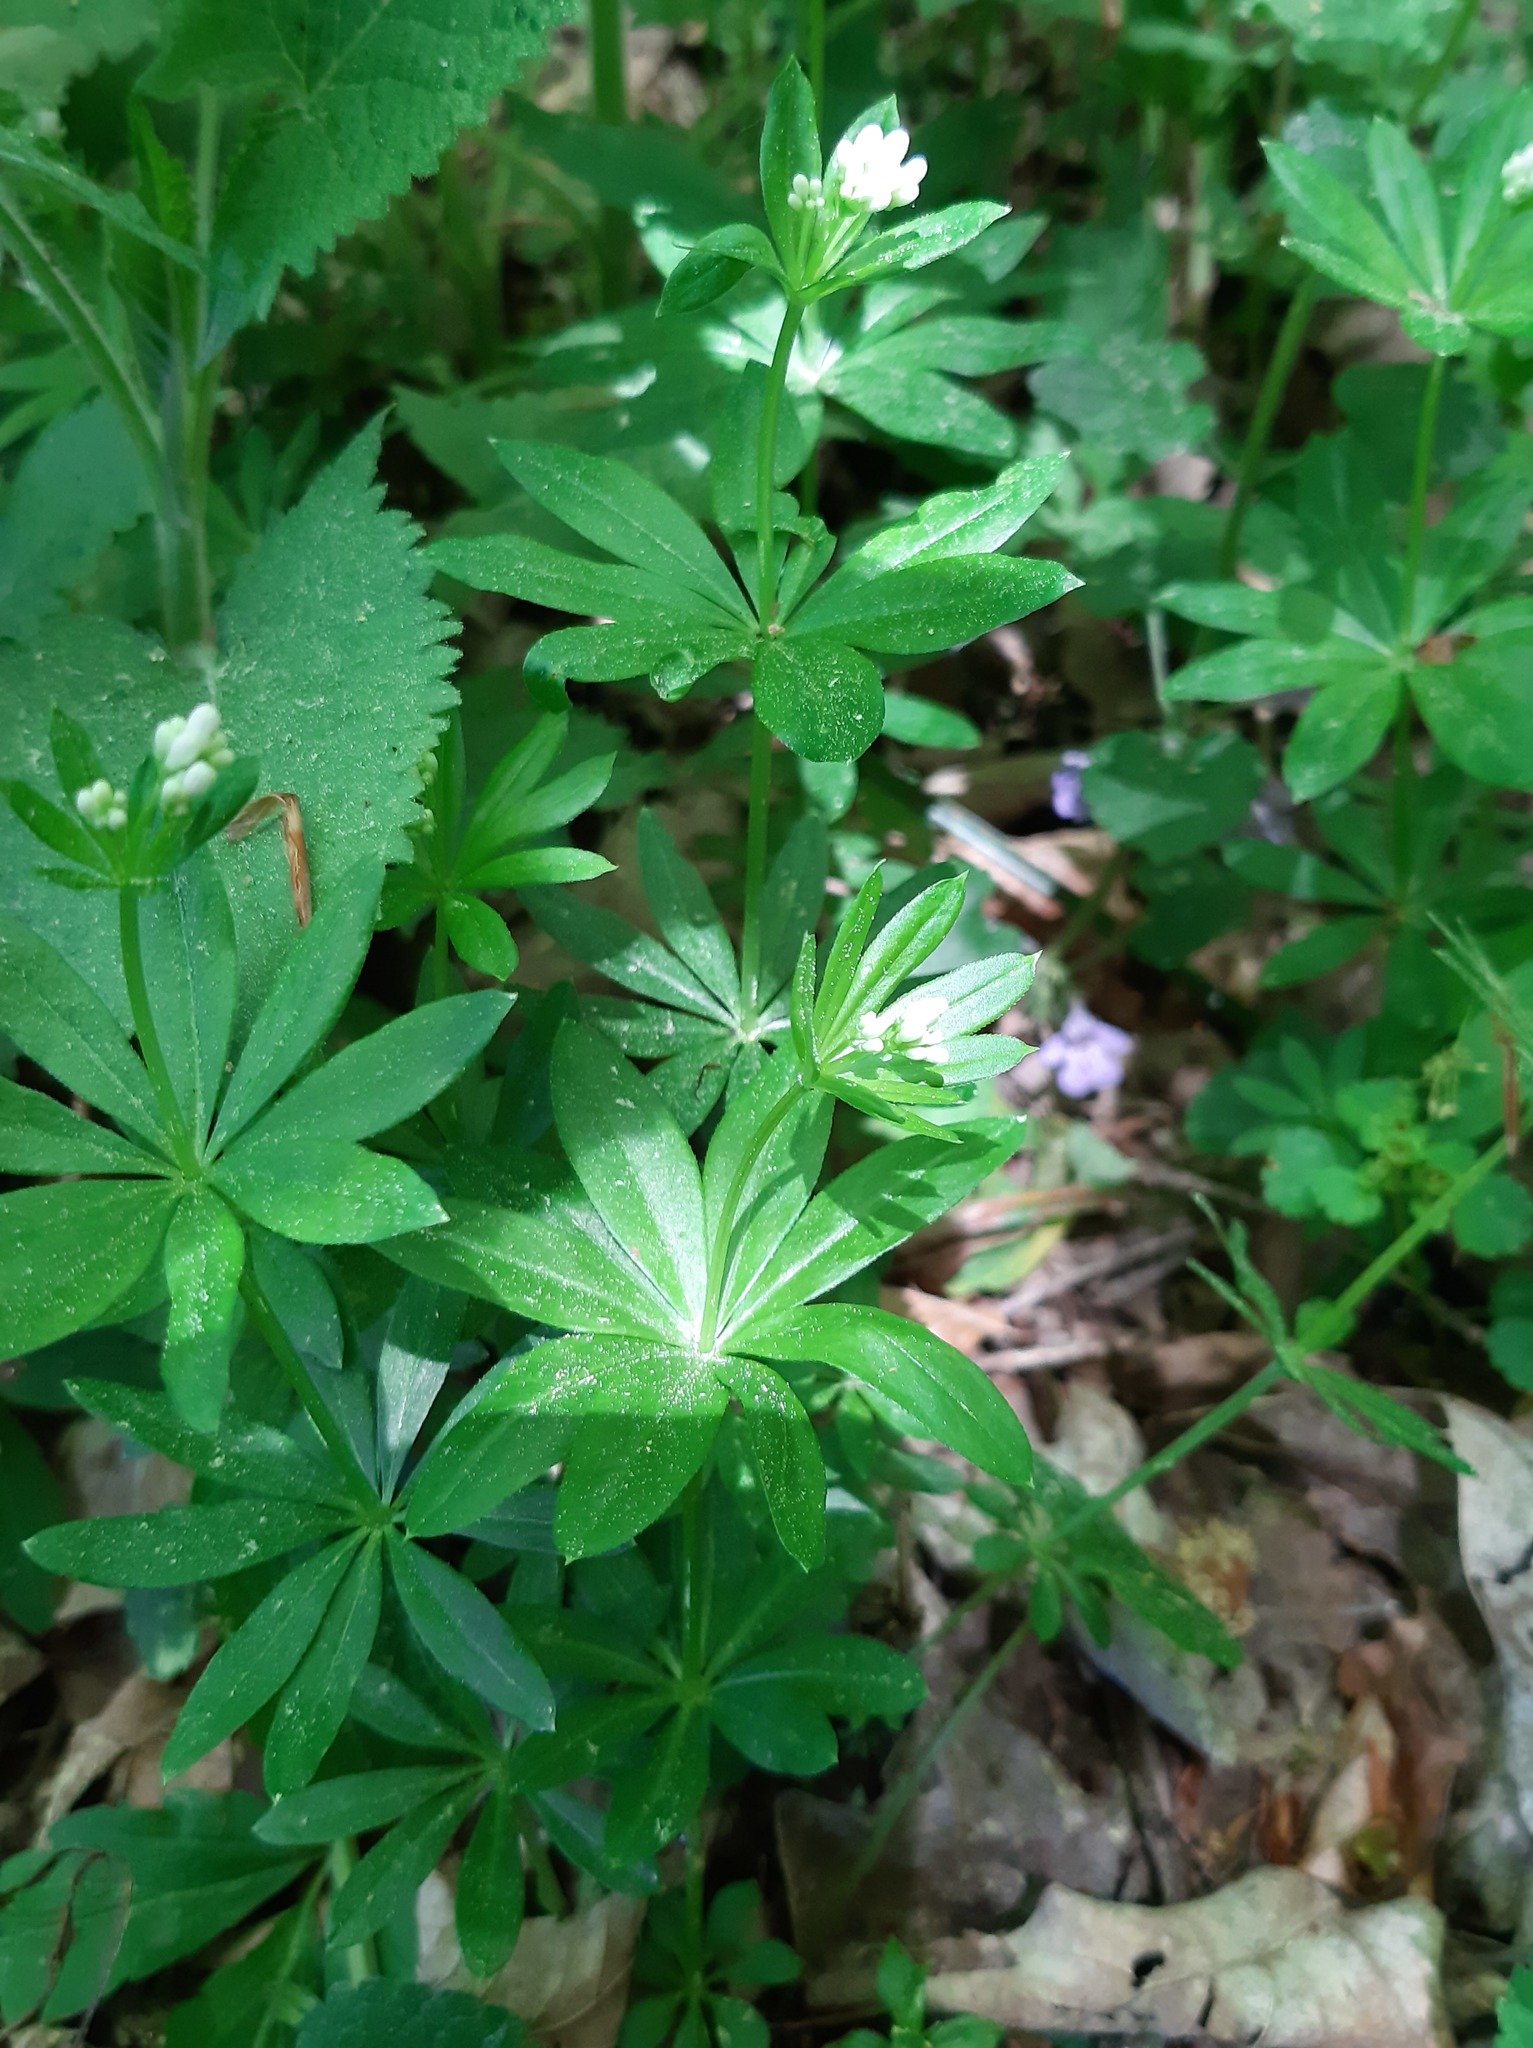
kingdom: Plantae
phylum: Tracheophyta
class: Magnoliopsida
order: Gentianales
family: Rubiaceae
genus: Galium
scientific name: Galium odoratum
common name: Sweet woodruff
